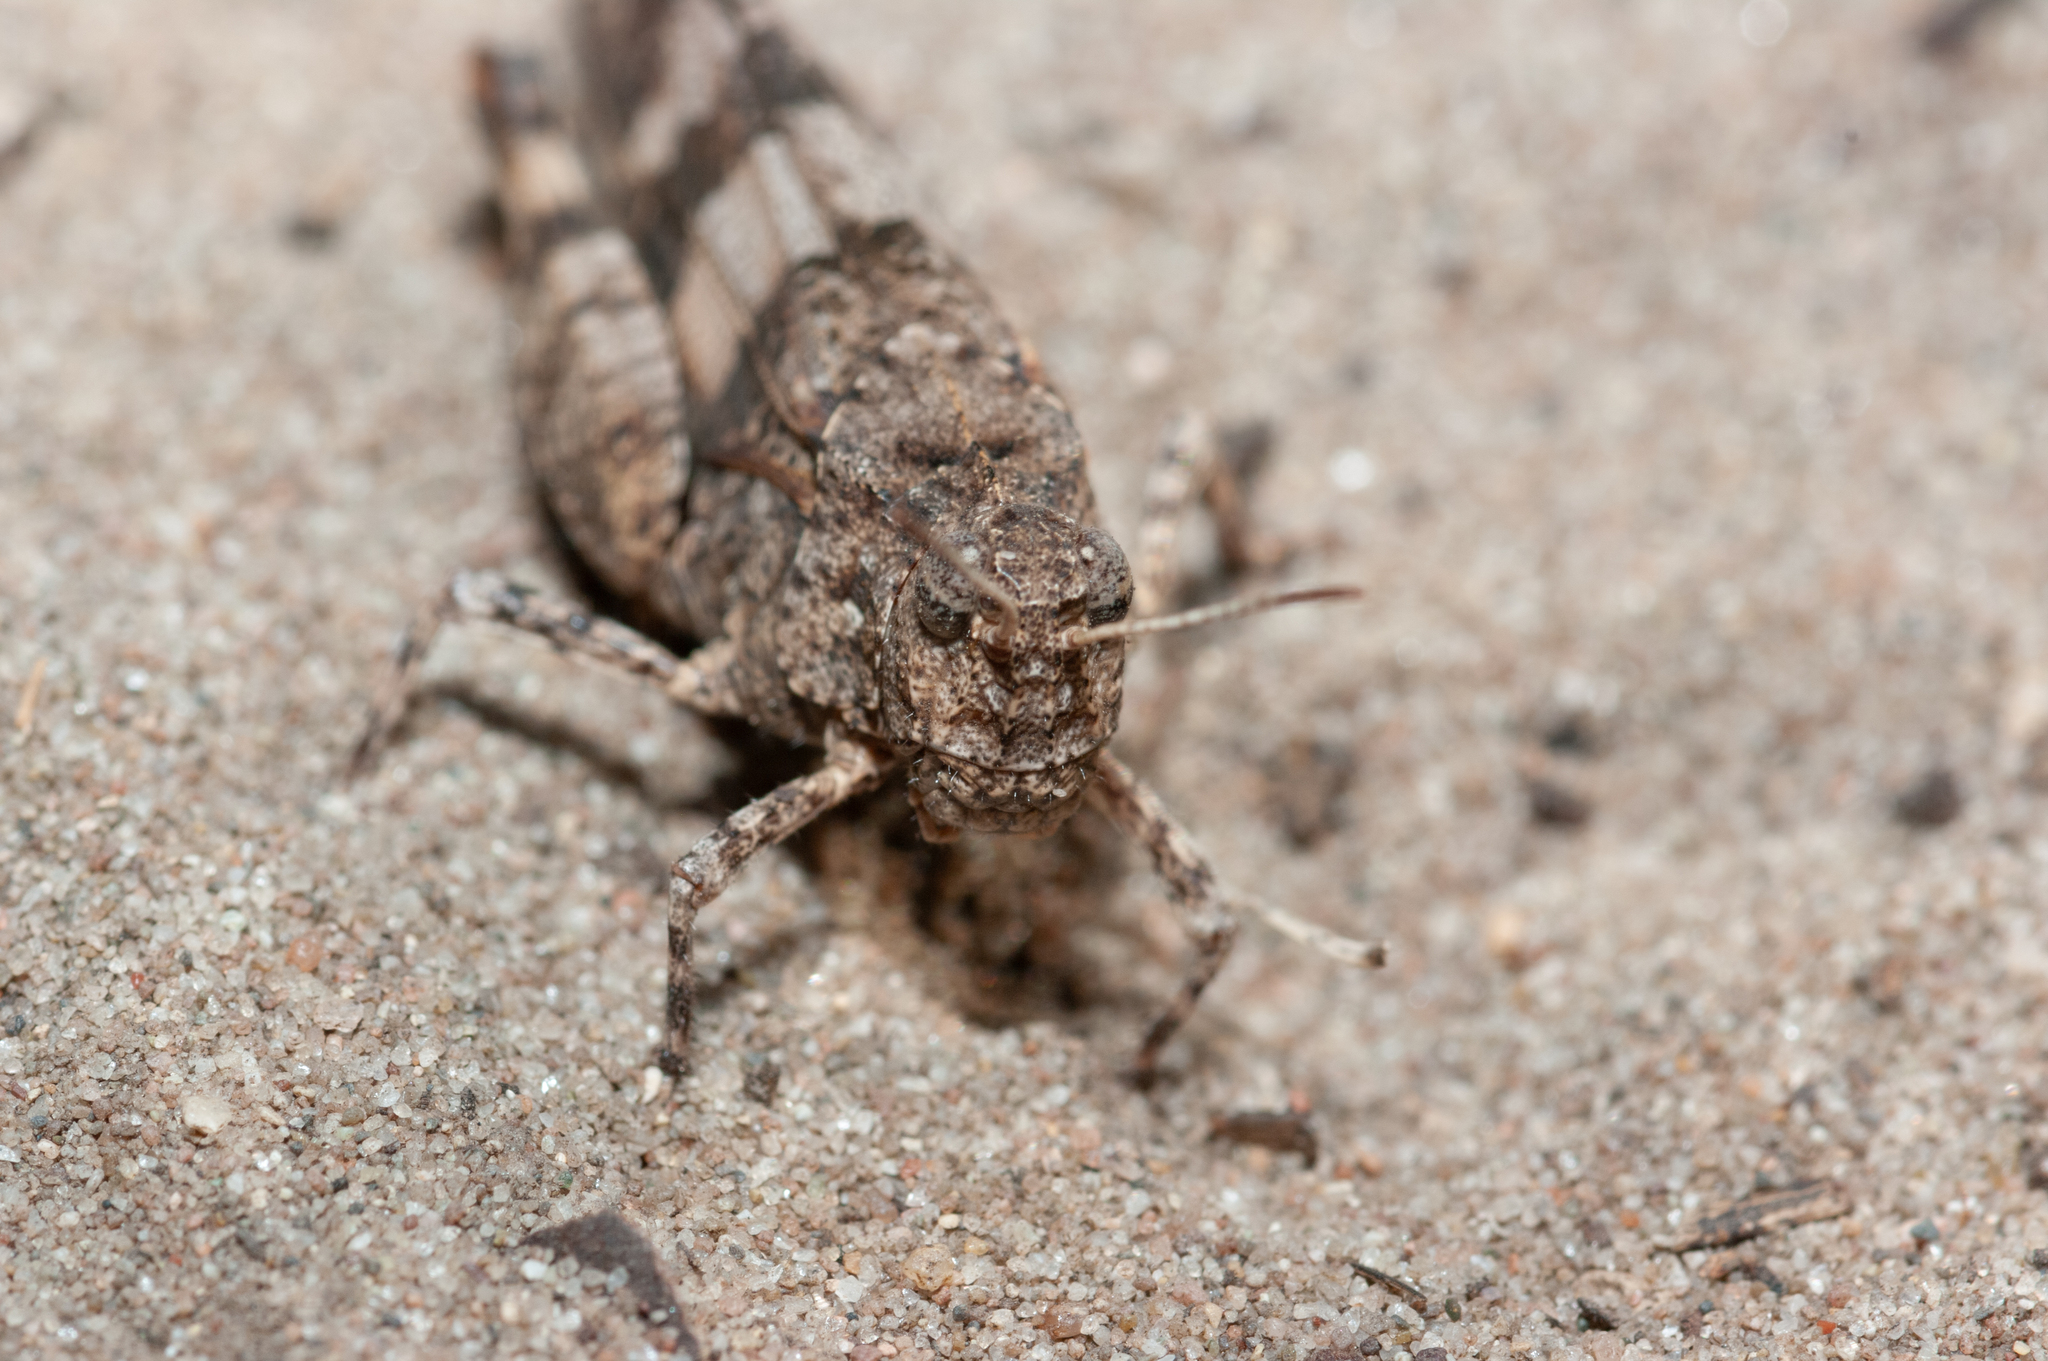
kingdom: Animalia
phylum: Arthropoda
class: Insecta
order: Orthoptera
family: Acrididae
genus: Oedipoda
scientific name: Oedipoda caerulescens
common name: Blue-winged grasshopper
